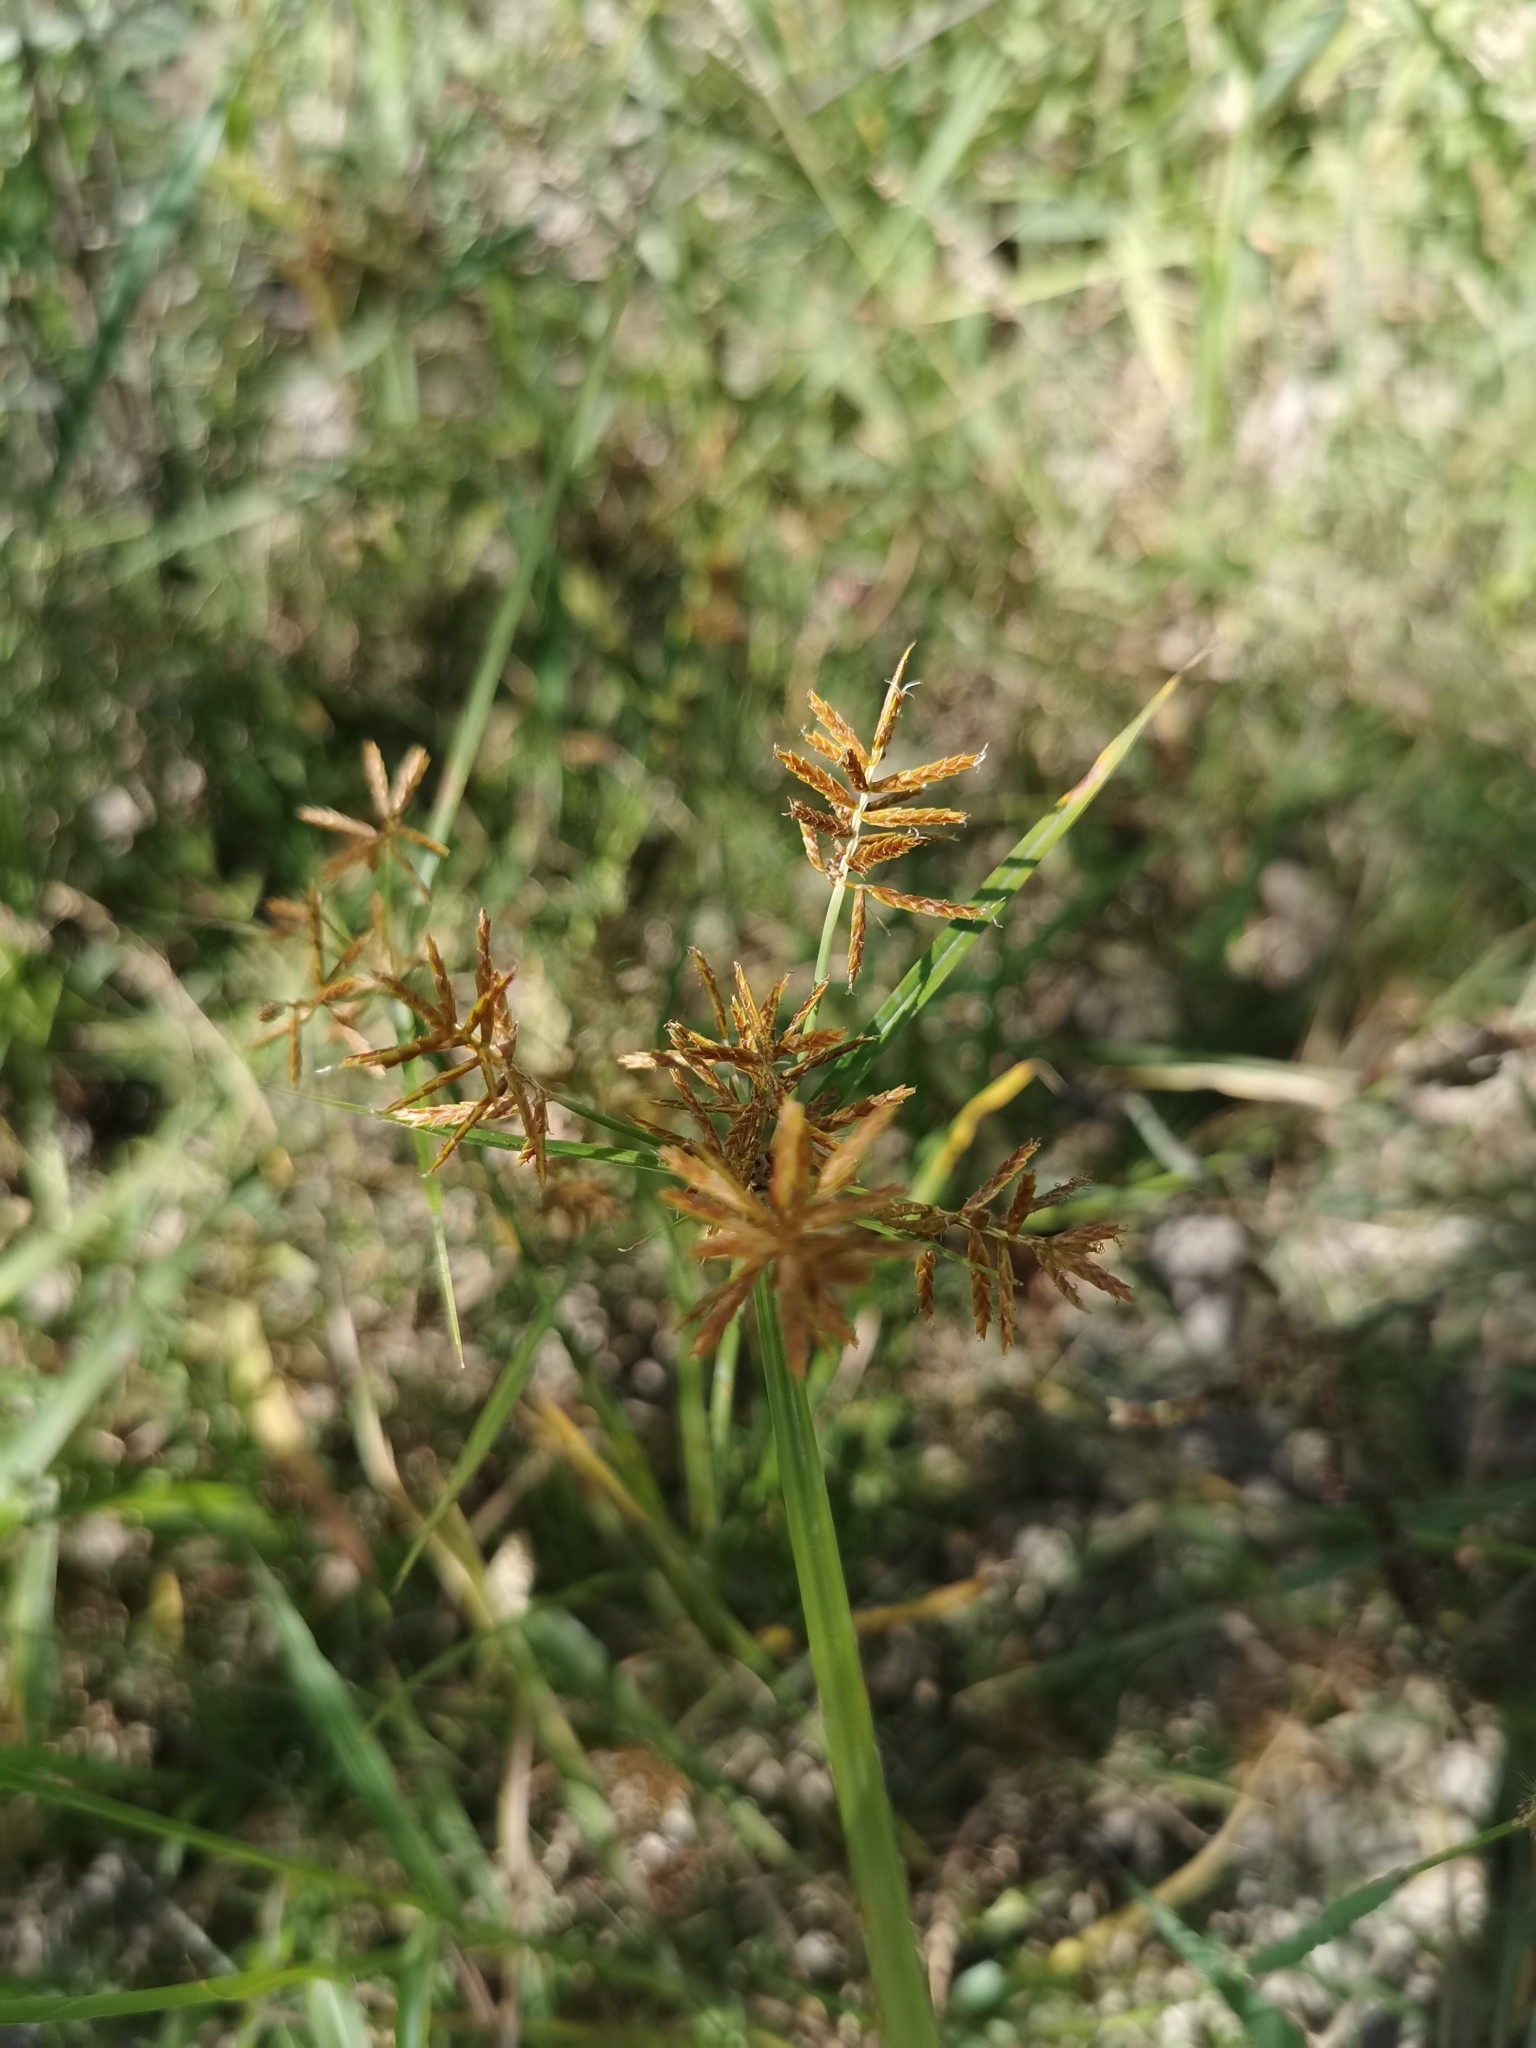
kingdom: Plantae
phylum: Tracheophyta
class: Liliopsida
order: Poales
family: Cyperaceae
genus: Cyperus
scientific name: Cyperus esculentus
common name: Yellow nutsedge
